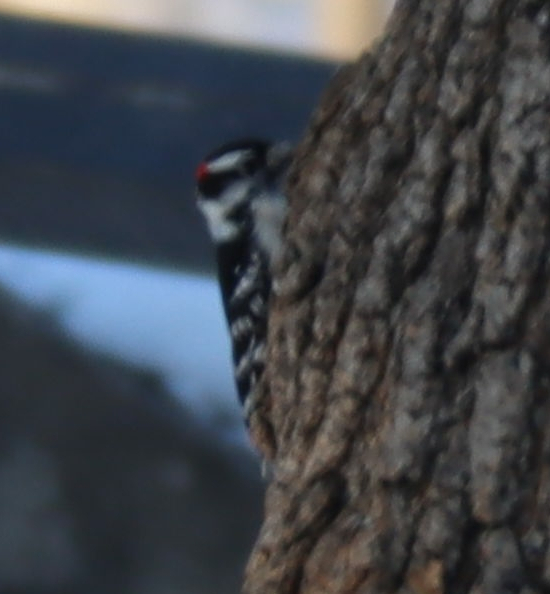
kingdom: Animalia
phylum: Chordata
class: Aves
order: Piciformes
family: Picidae
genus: Dryobates
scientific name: Dryobates pubescens
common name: Downy woodpecker
